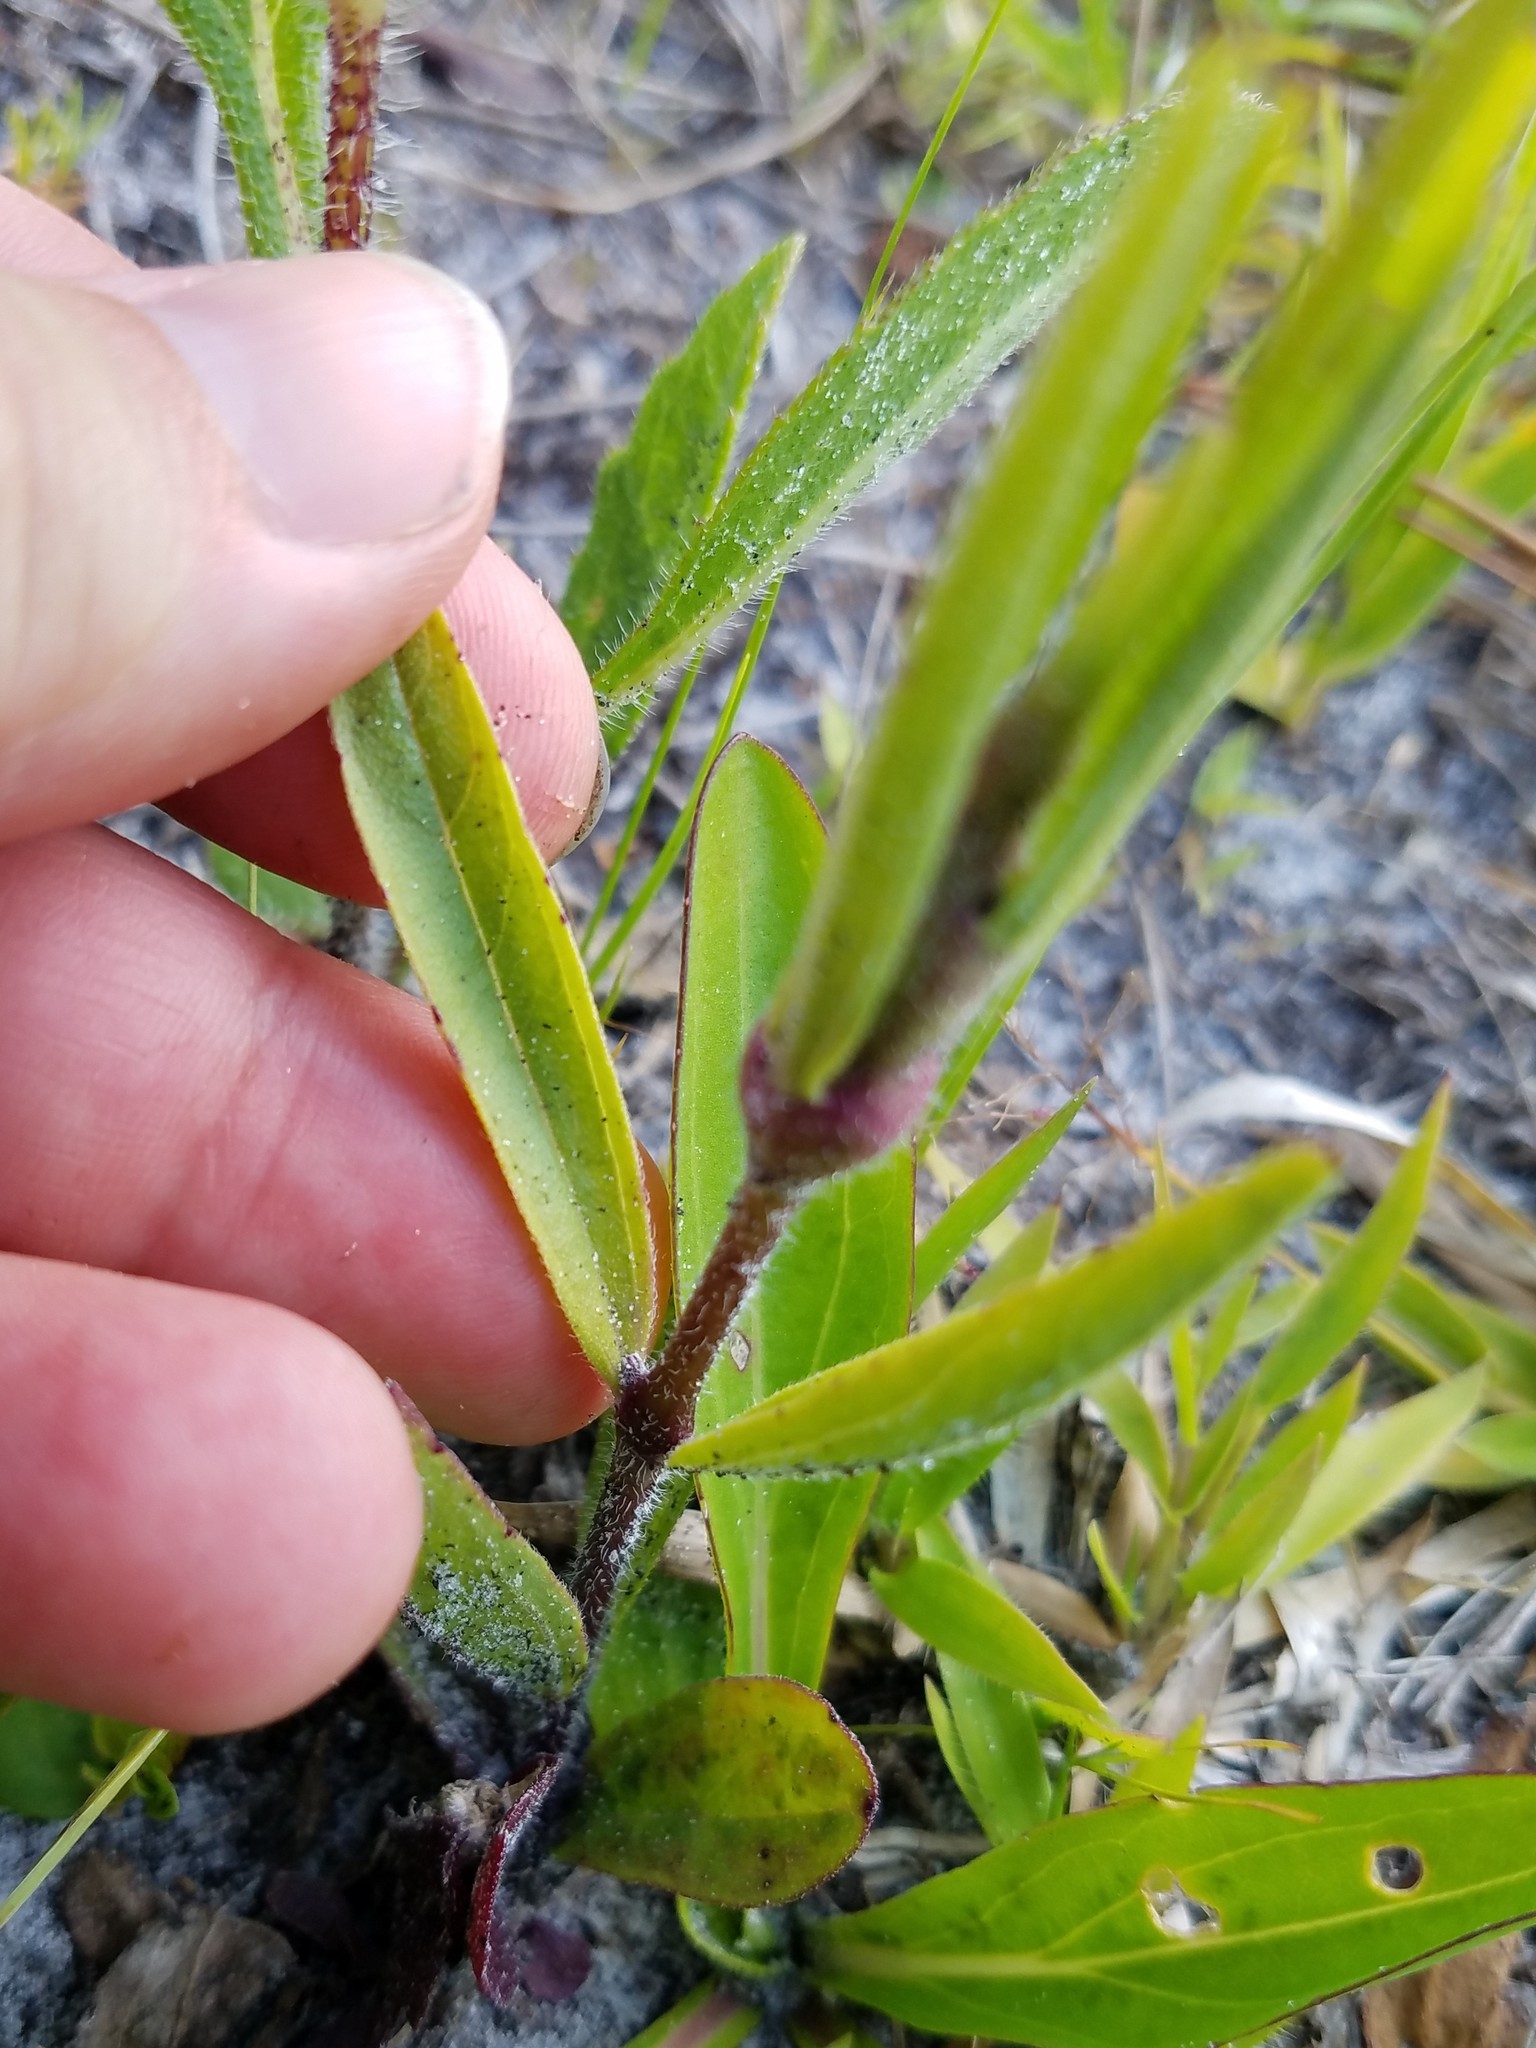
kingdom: Plantae
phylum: Tracheophyta
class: Magnoliopsida
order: Lamiales
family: Orobanchaceae
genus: Buchnera
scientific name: Buchnera floridana
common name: Florida bluehearts
